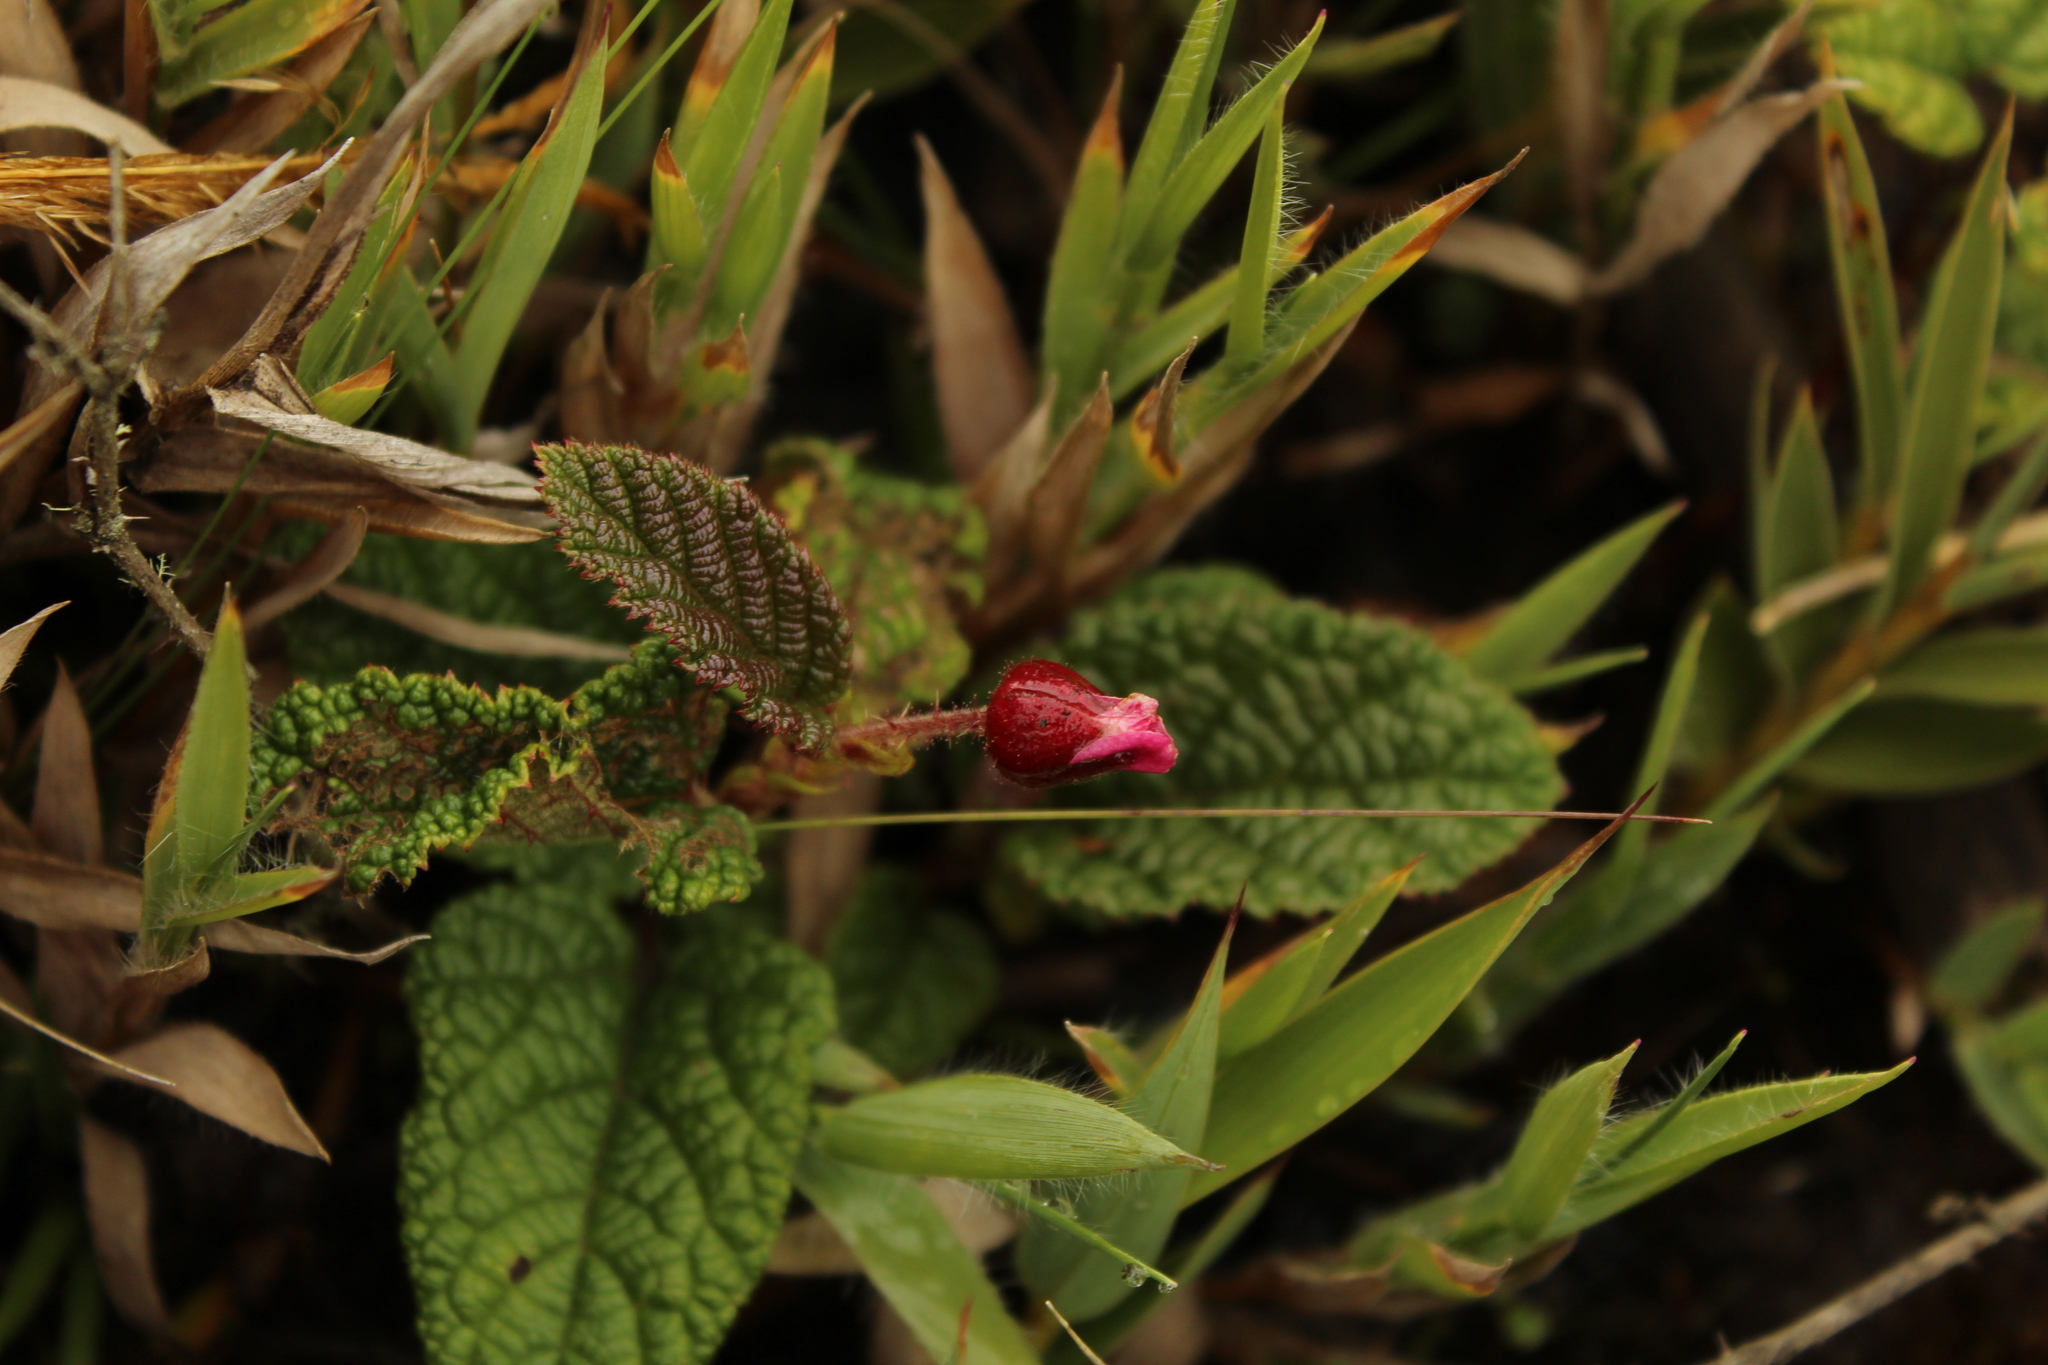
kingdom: Plantae
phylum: Tracheophyta
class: Magnoliopsida
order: Rosales
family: Rosaceae
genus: Rubus
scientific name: Rubus acanthophyllos
